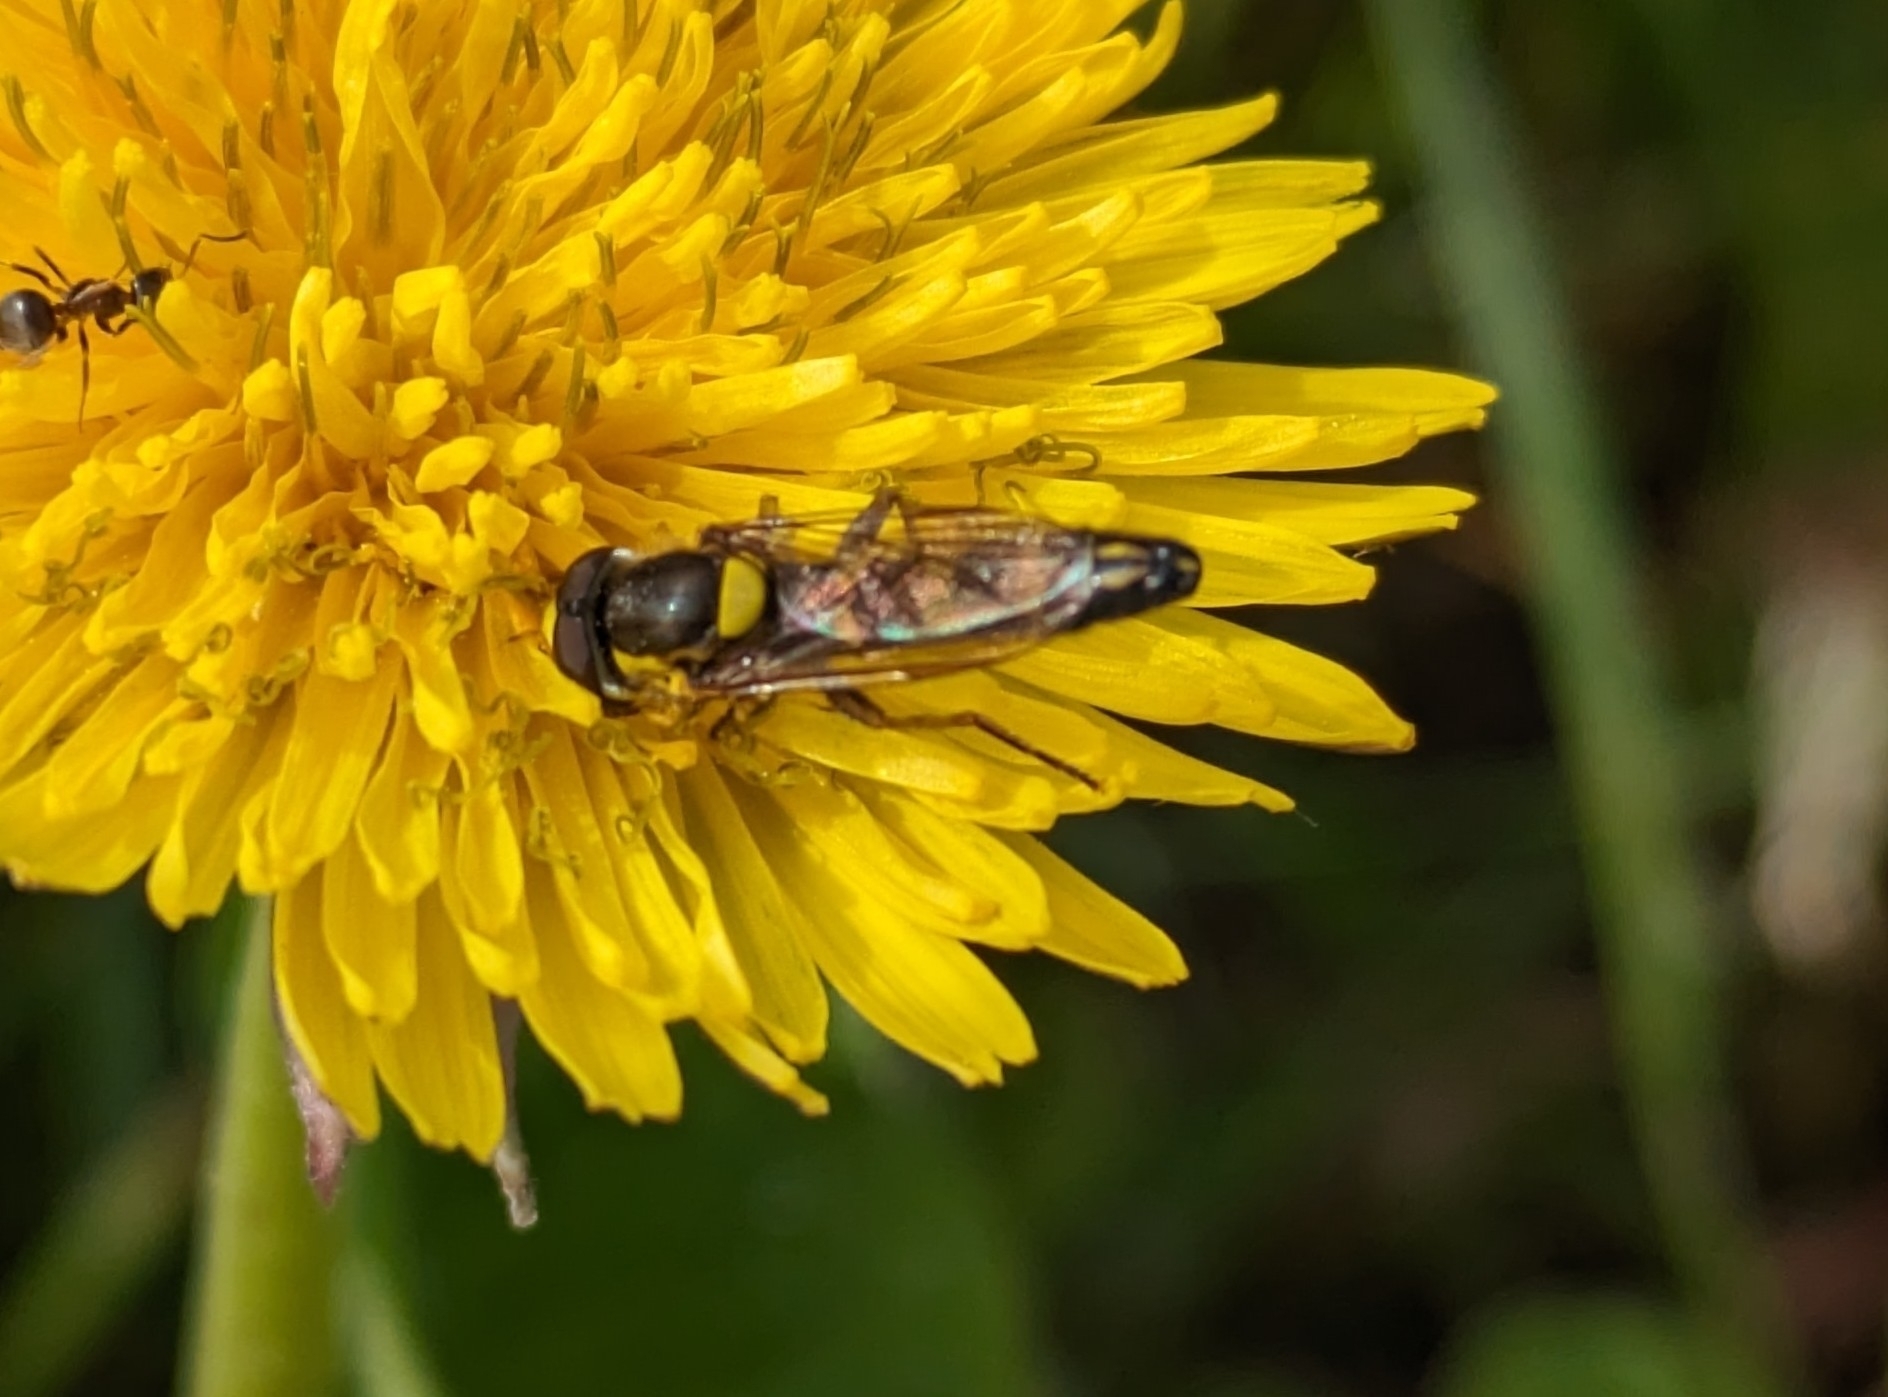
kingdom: Animalia
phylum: Arthropoda
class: Insecta
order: Diptera
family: Syrphidae
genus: Sphaerophoria
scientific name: Sphaerophoria scripta
